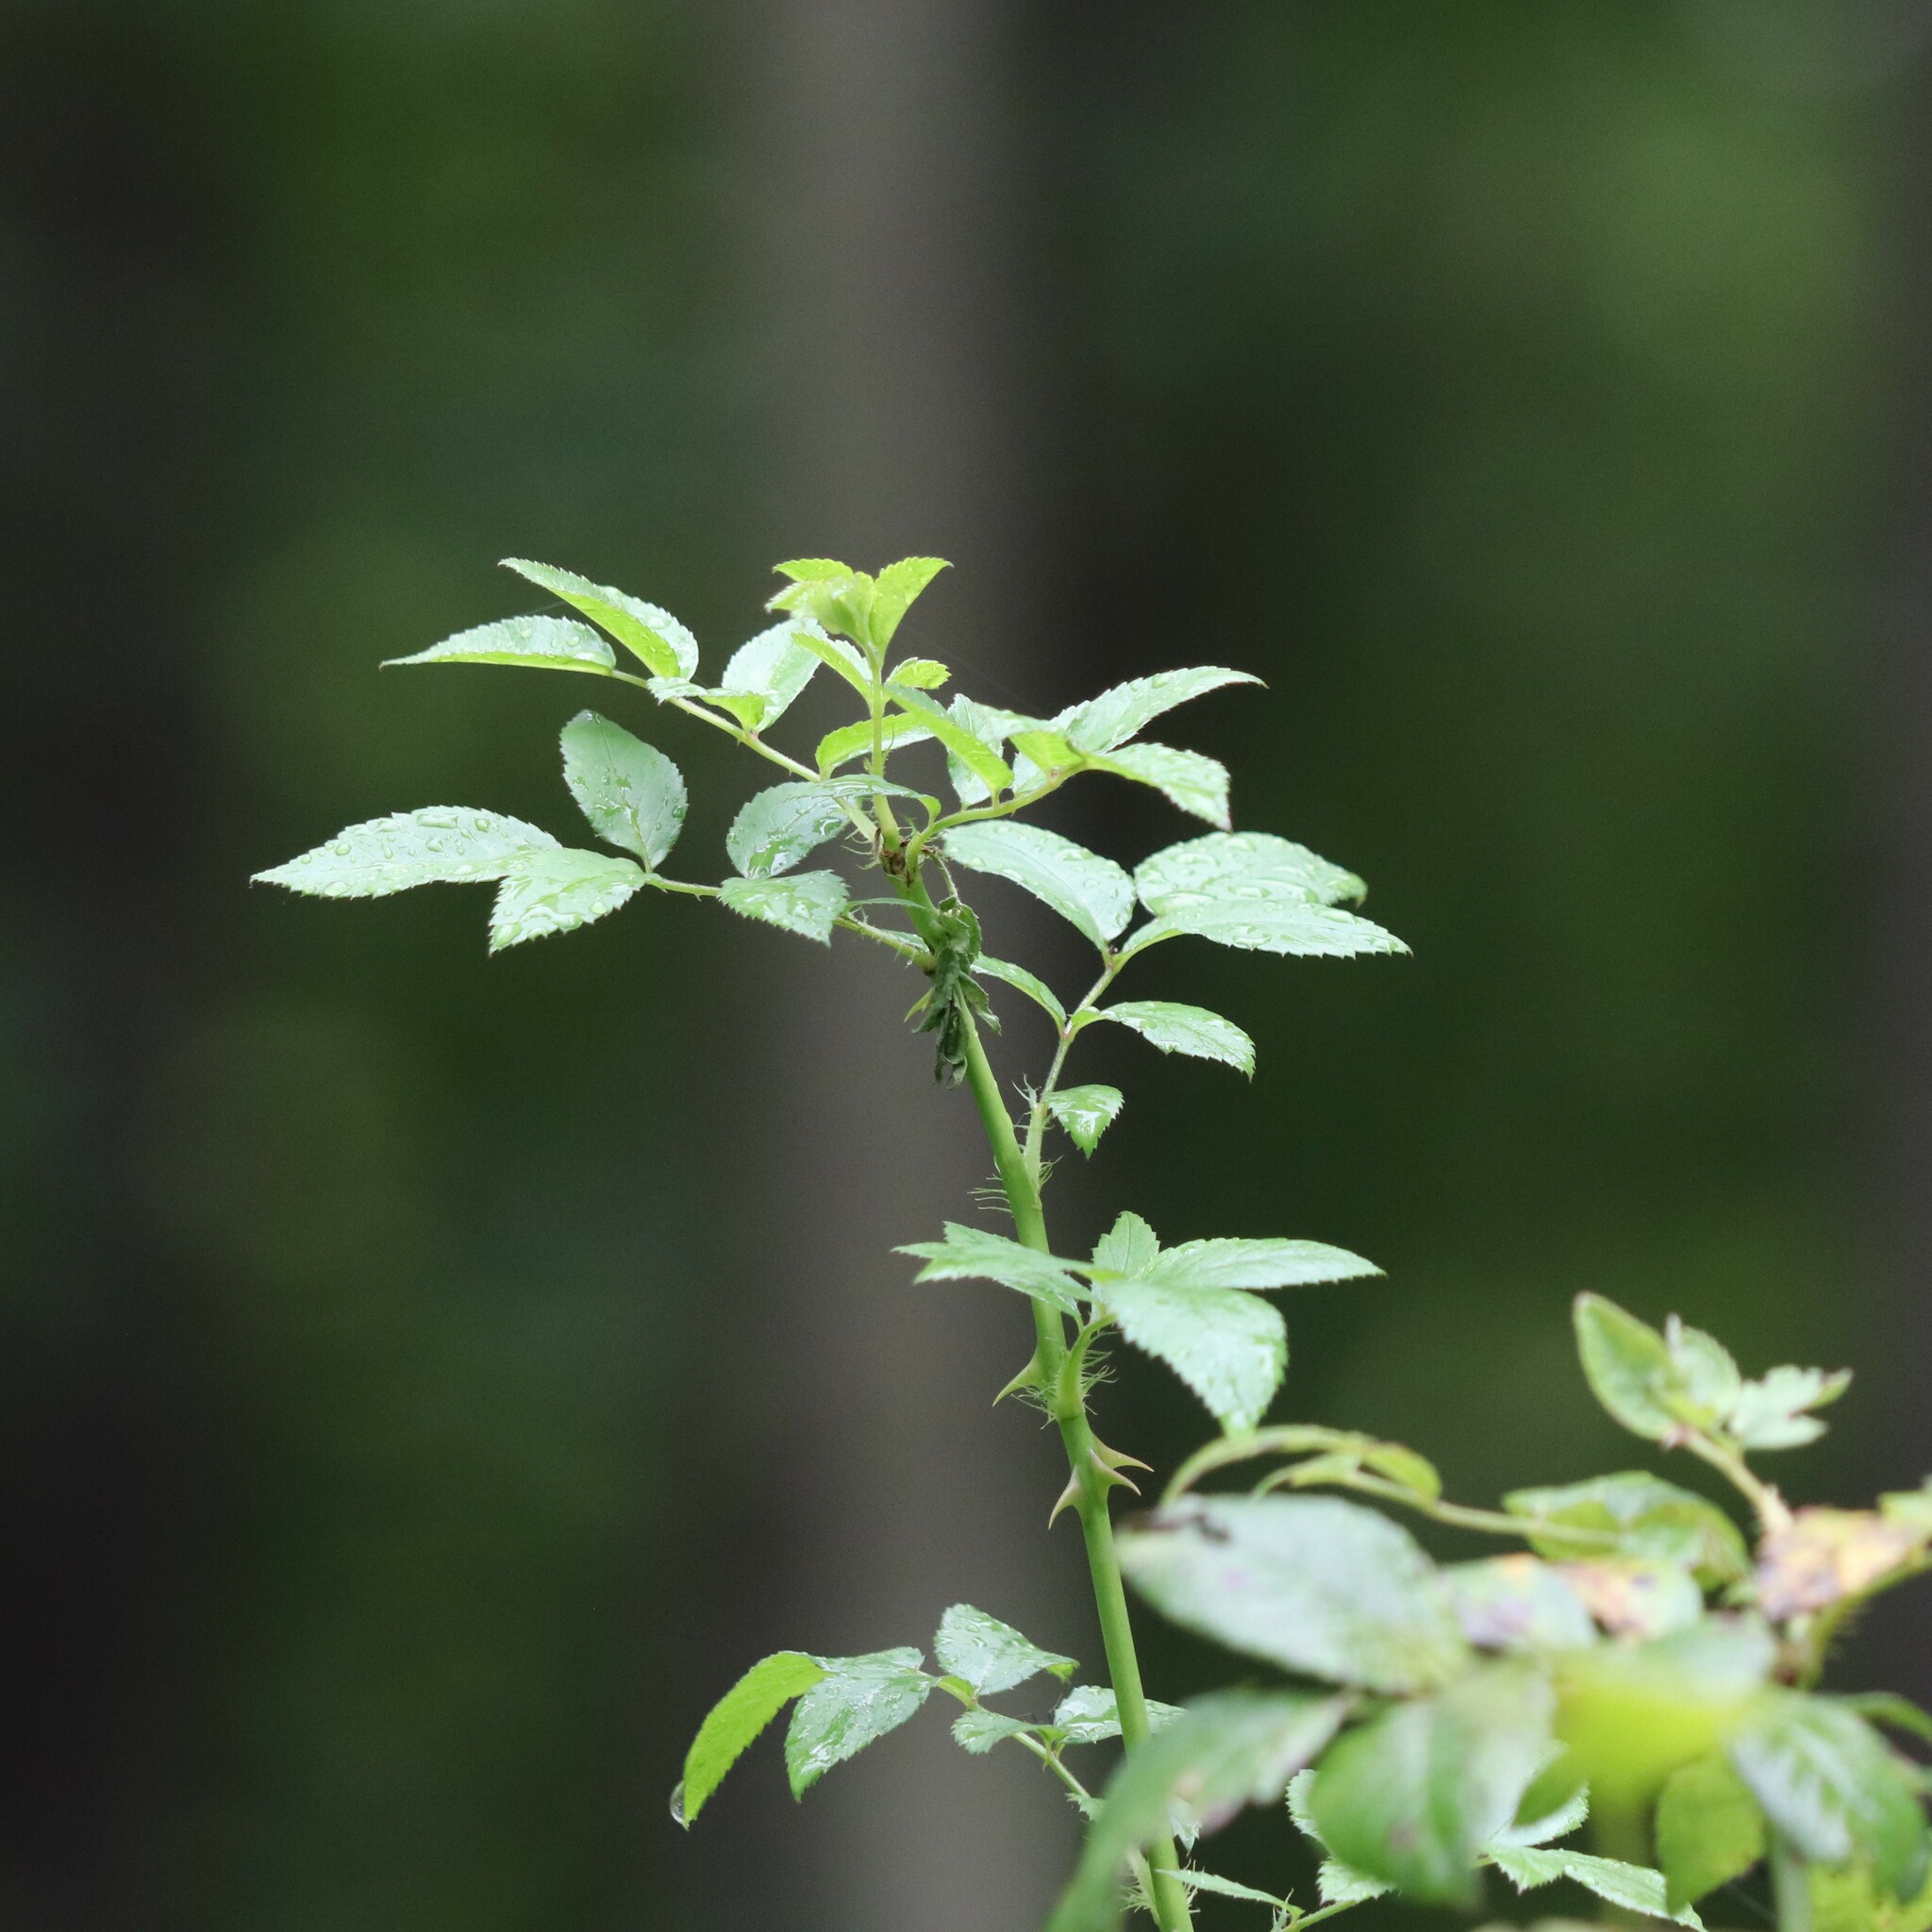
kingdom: Plantae
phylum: Tracheophyta
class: Magnoliopsida
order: Rosales
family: Rosaceae
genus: Rosa
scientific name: Rosa multiflora
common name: Multiflora rose
